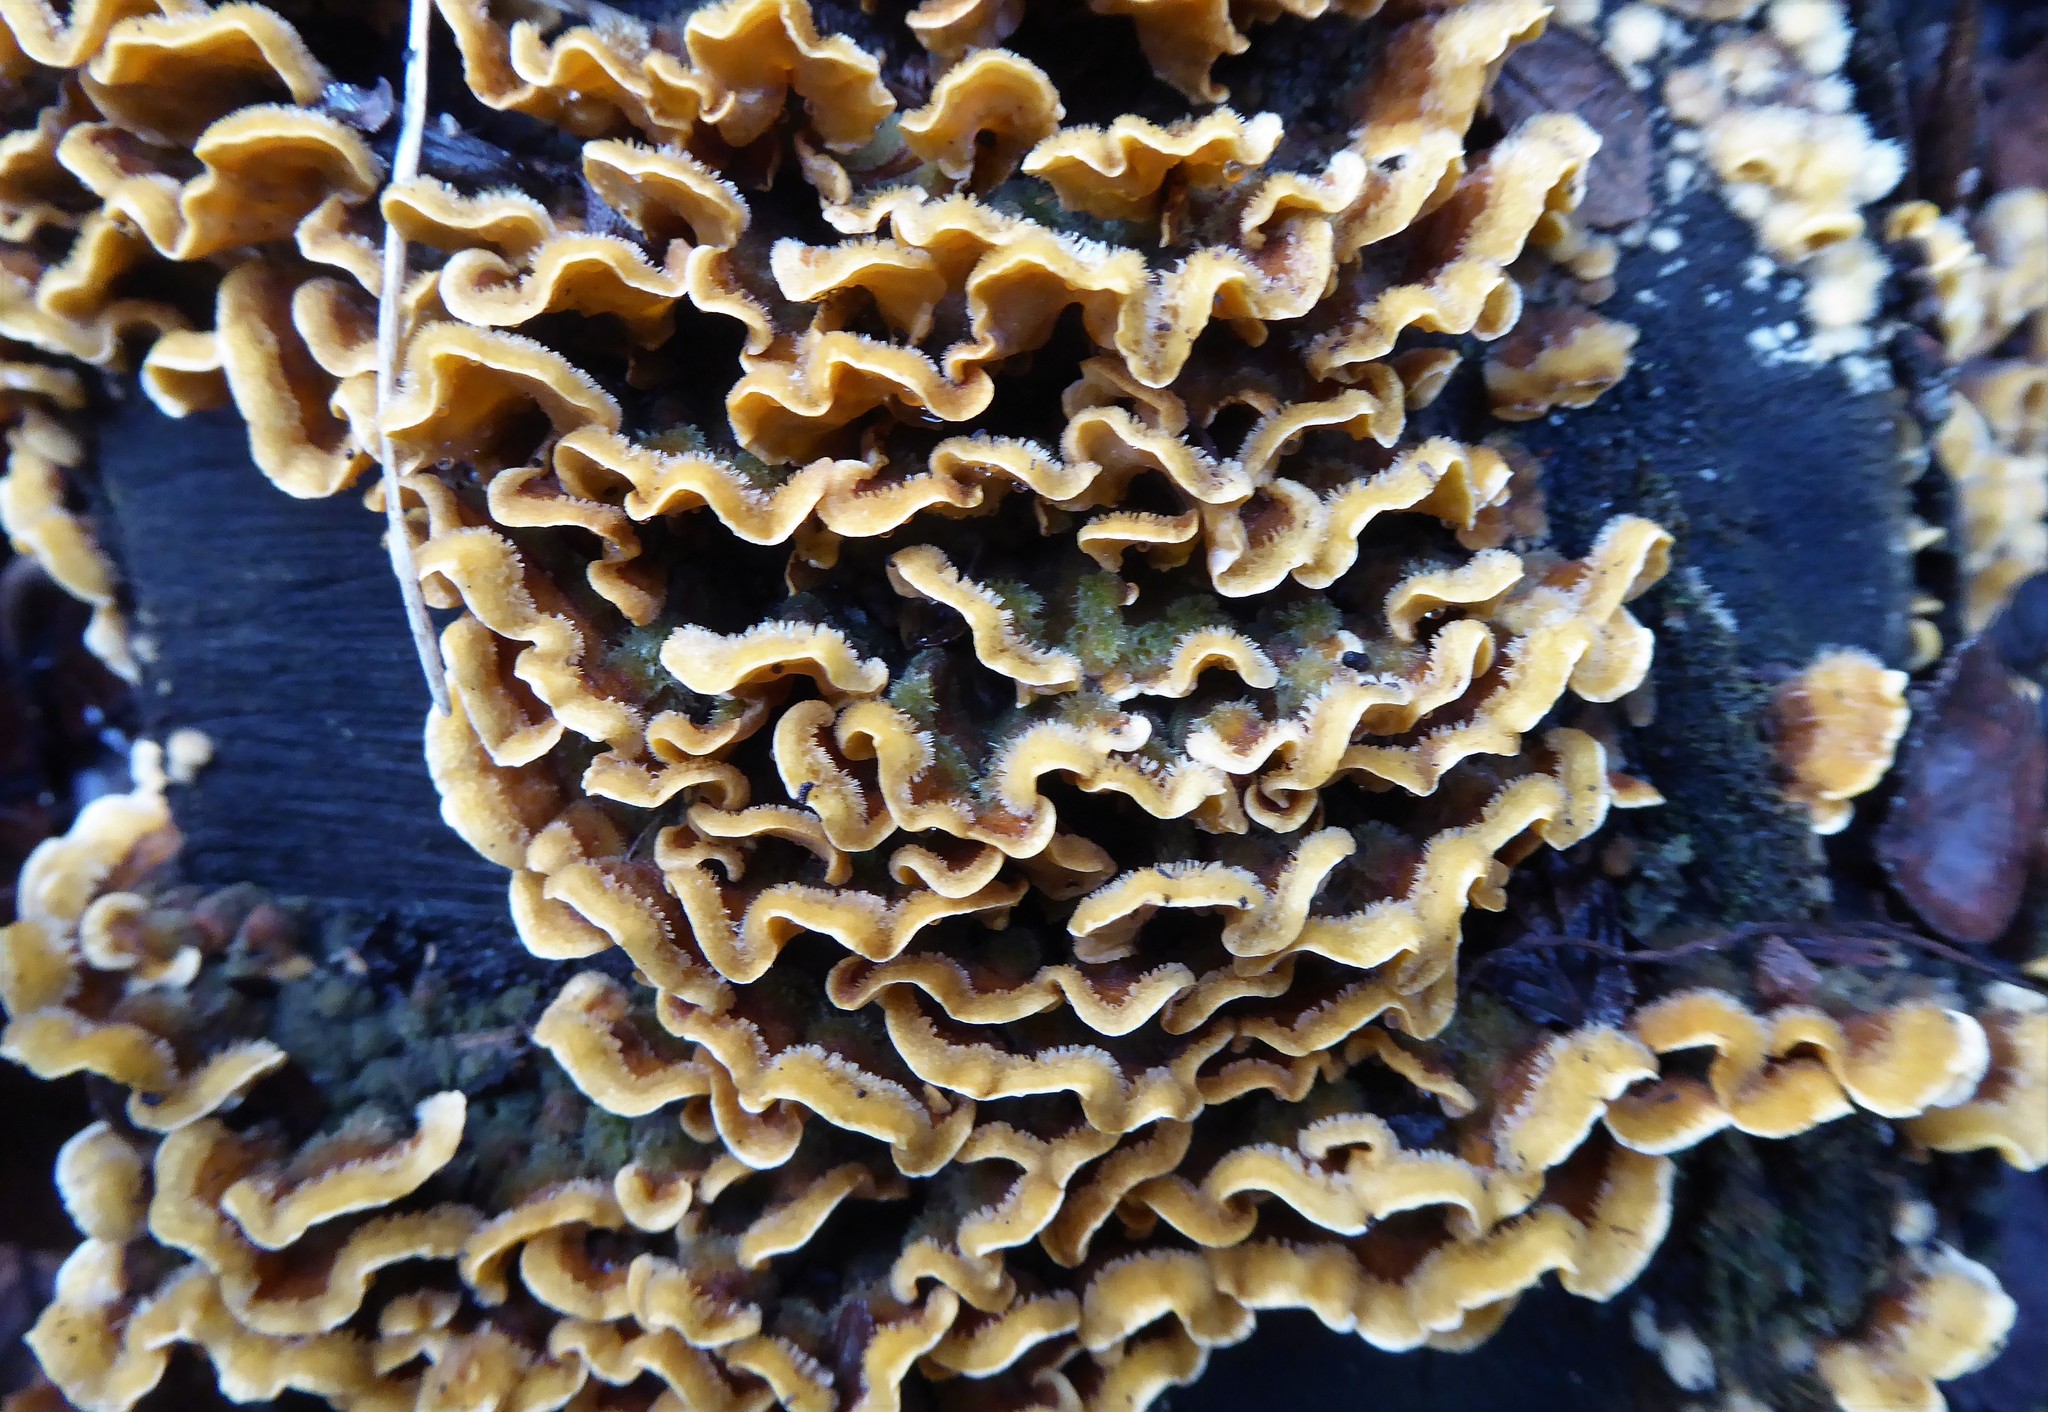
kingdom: Fungi
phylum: Basidiomycota
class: Agaricomycetes
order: Russulales
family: Stereaceae
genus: Stereum
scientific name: Stereum hirsutum
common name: Hairy curtain crust
